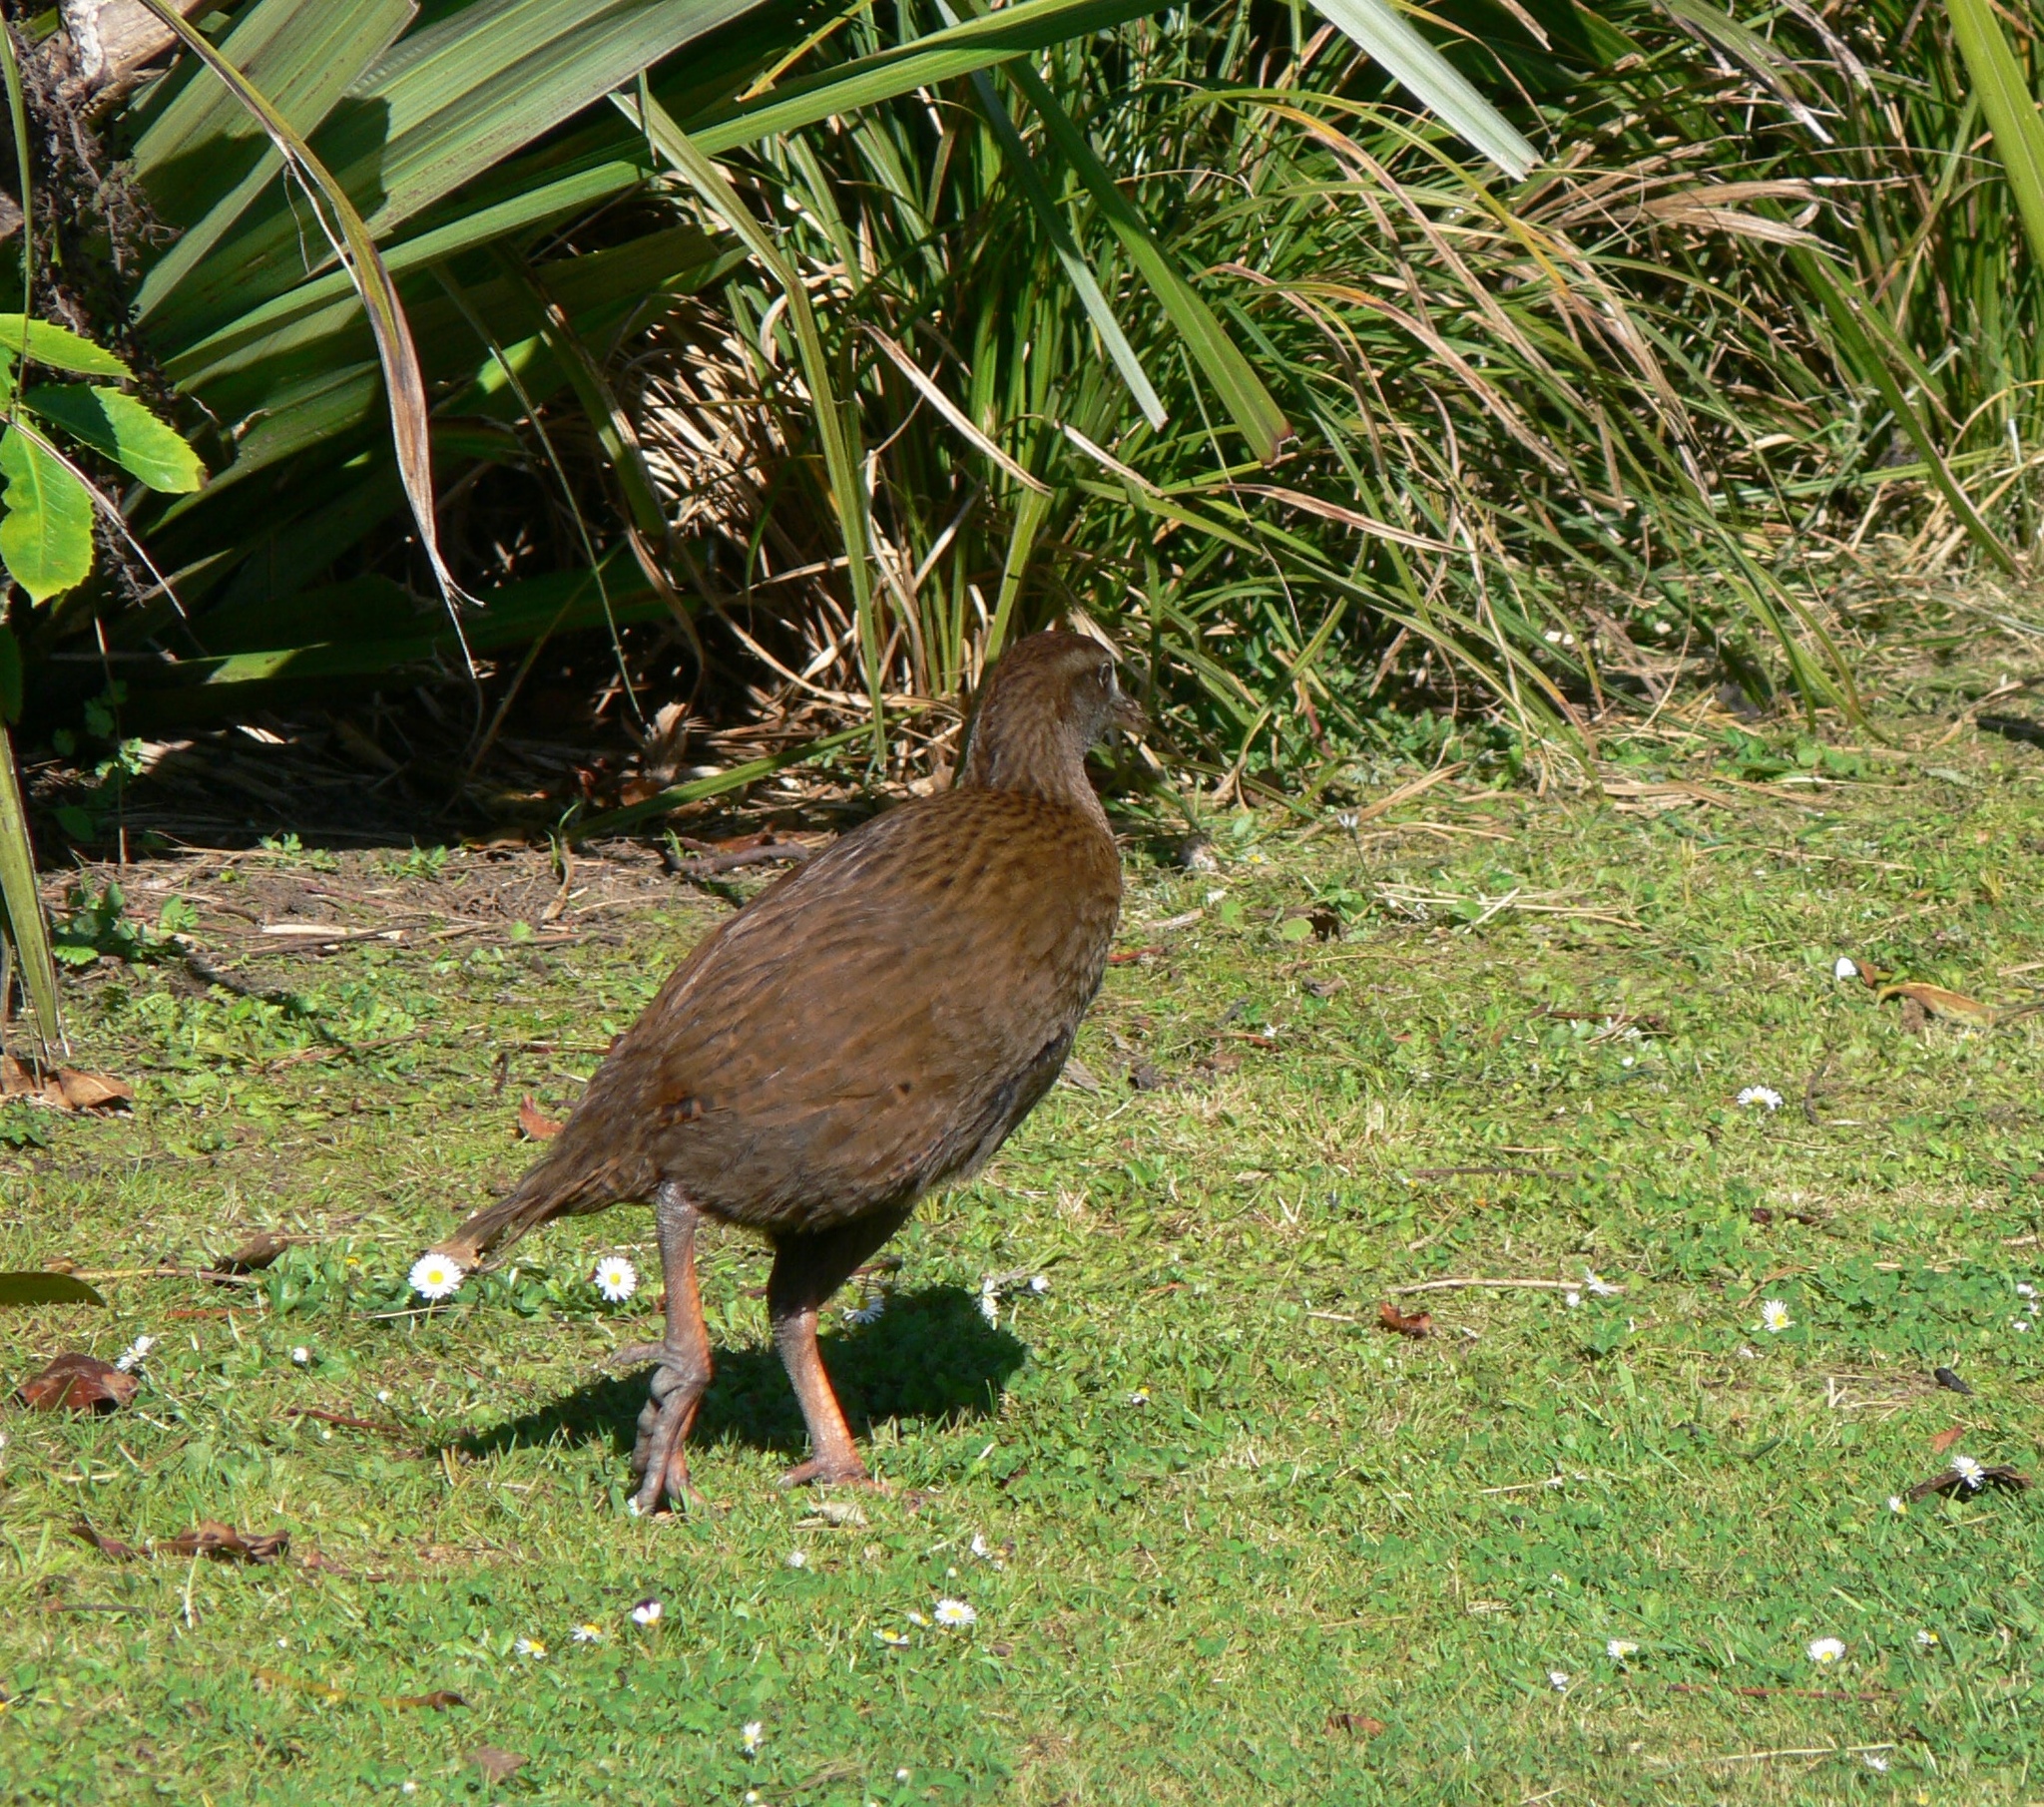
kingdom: Animalia
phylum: Chordata
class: Aves
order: Gruiformes
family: Rallidae
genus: Gallirallus
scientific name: Gallirallus australis
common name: Weka
